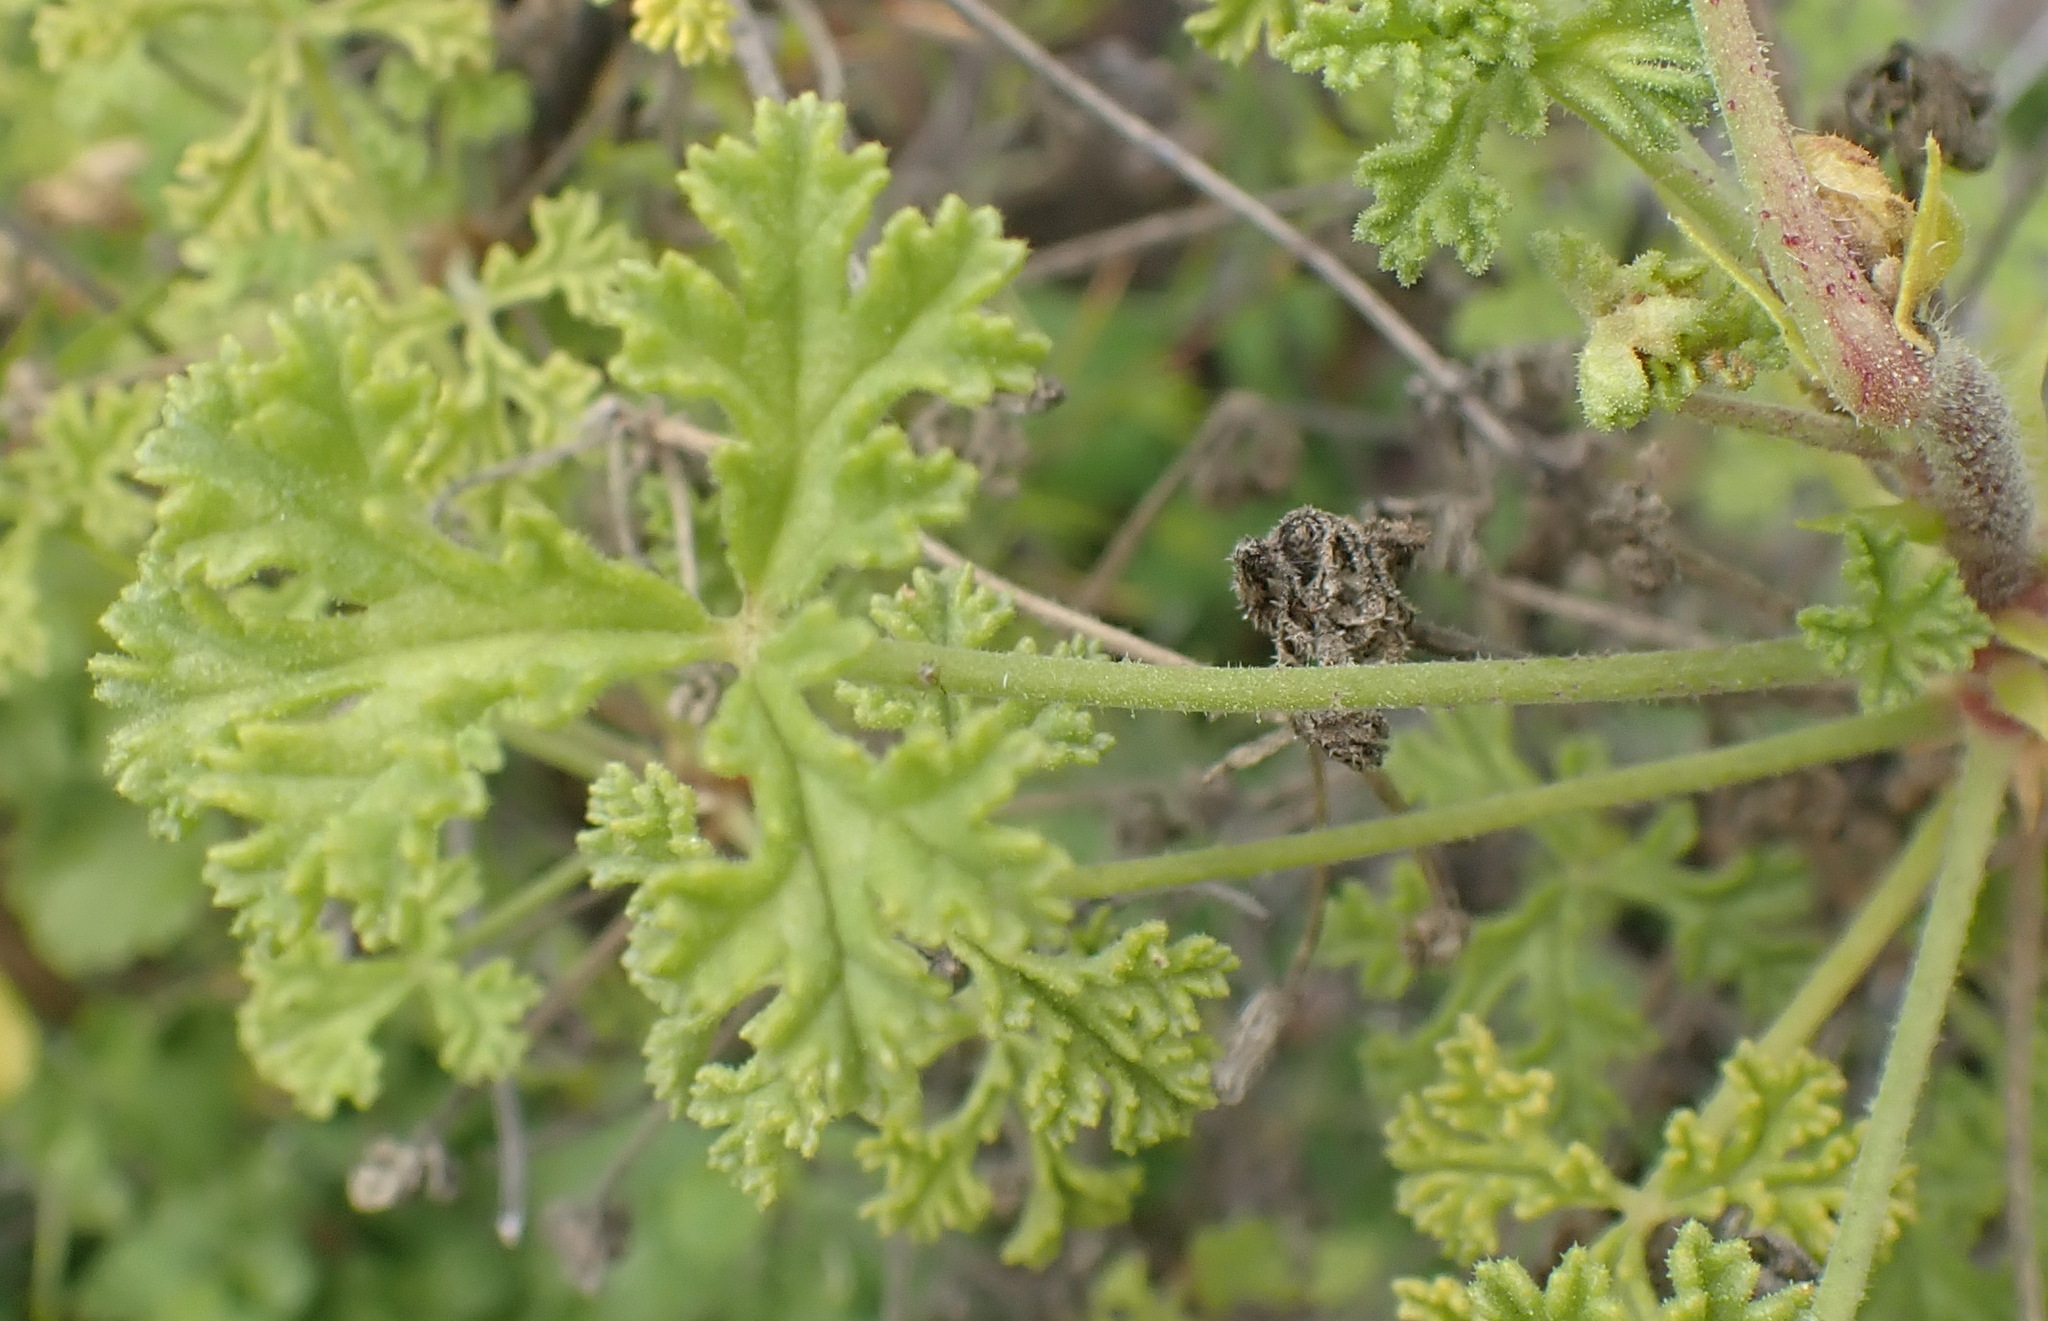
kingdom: Plantae
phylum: Tracheophyta
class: Magnoliopsida
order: Geraniales
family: Geraniaceae
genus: Pelargonium
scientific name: Pelargonium trifidum
